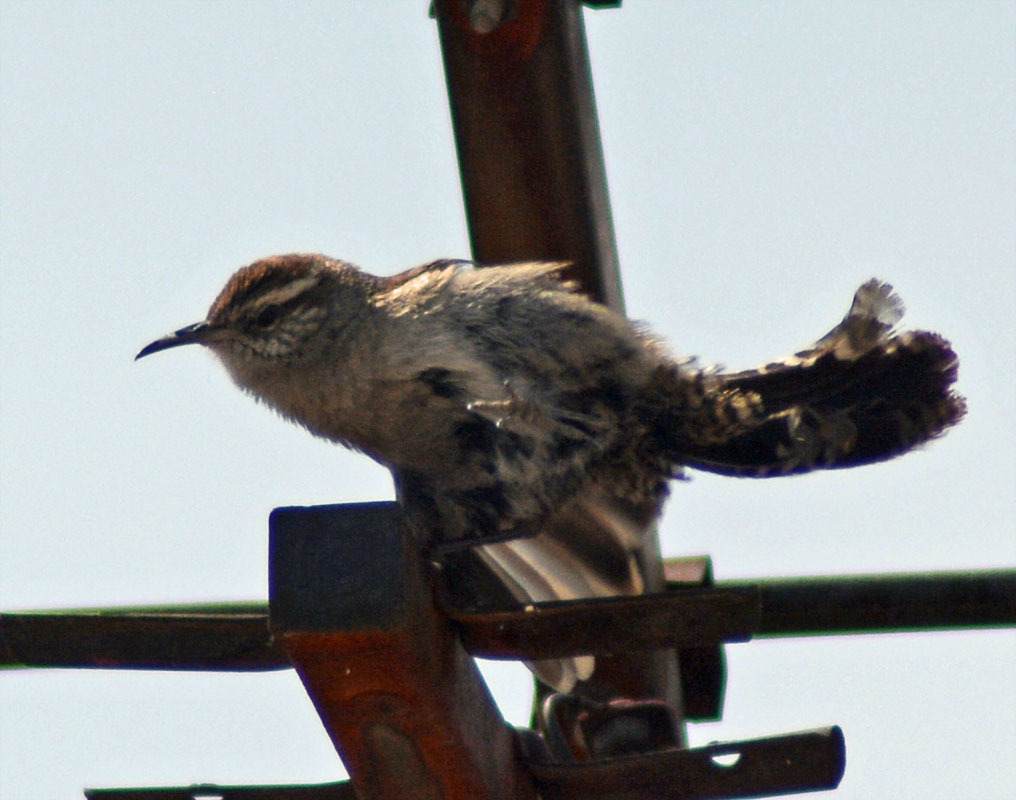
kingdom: Animalia
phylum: Chordata
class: Aves
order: Passeriformes
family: Troglodytidae
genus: Thryomanes
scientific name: Thryomanes bewickii
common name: Bewick's wren
